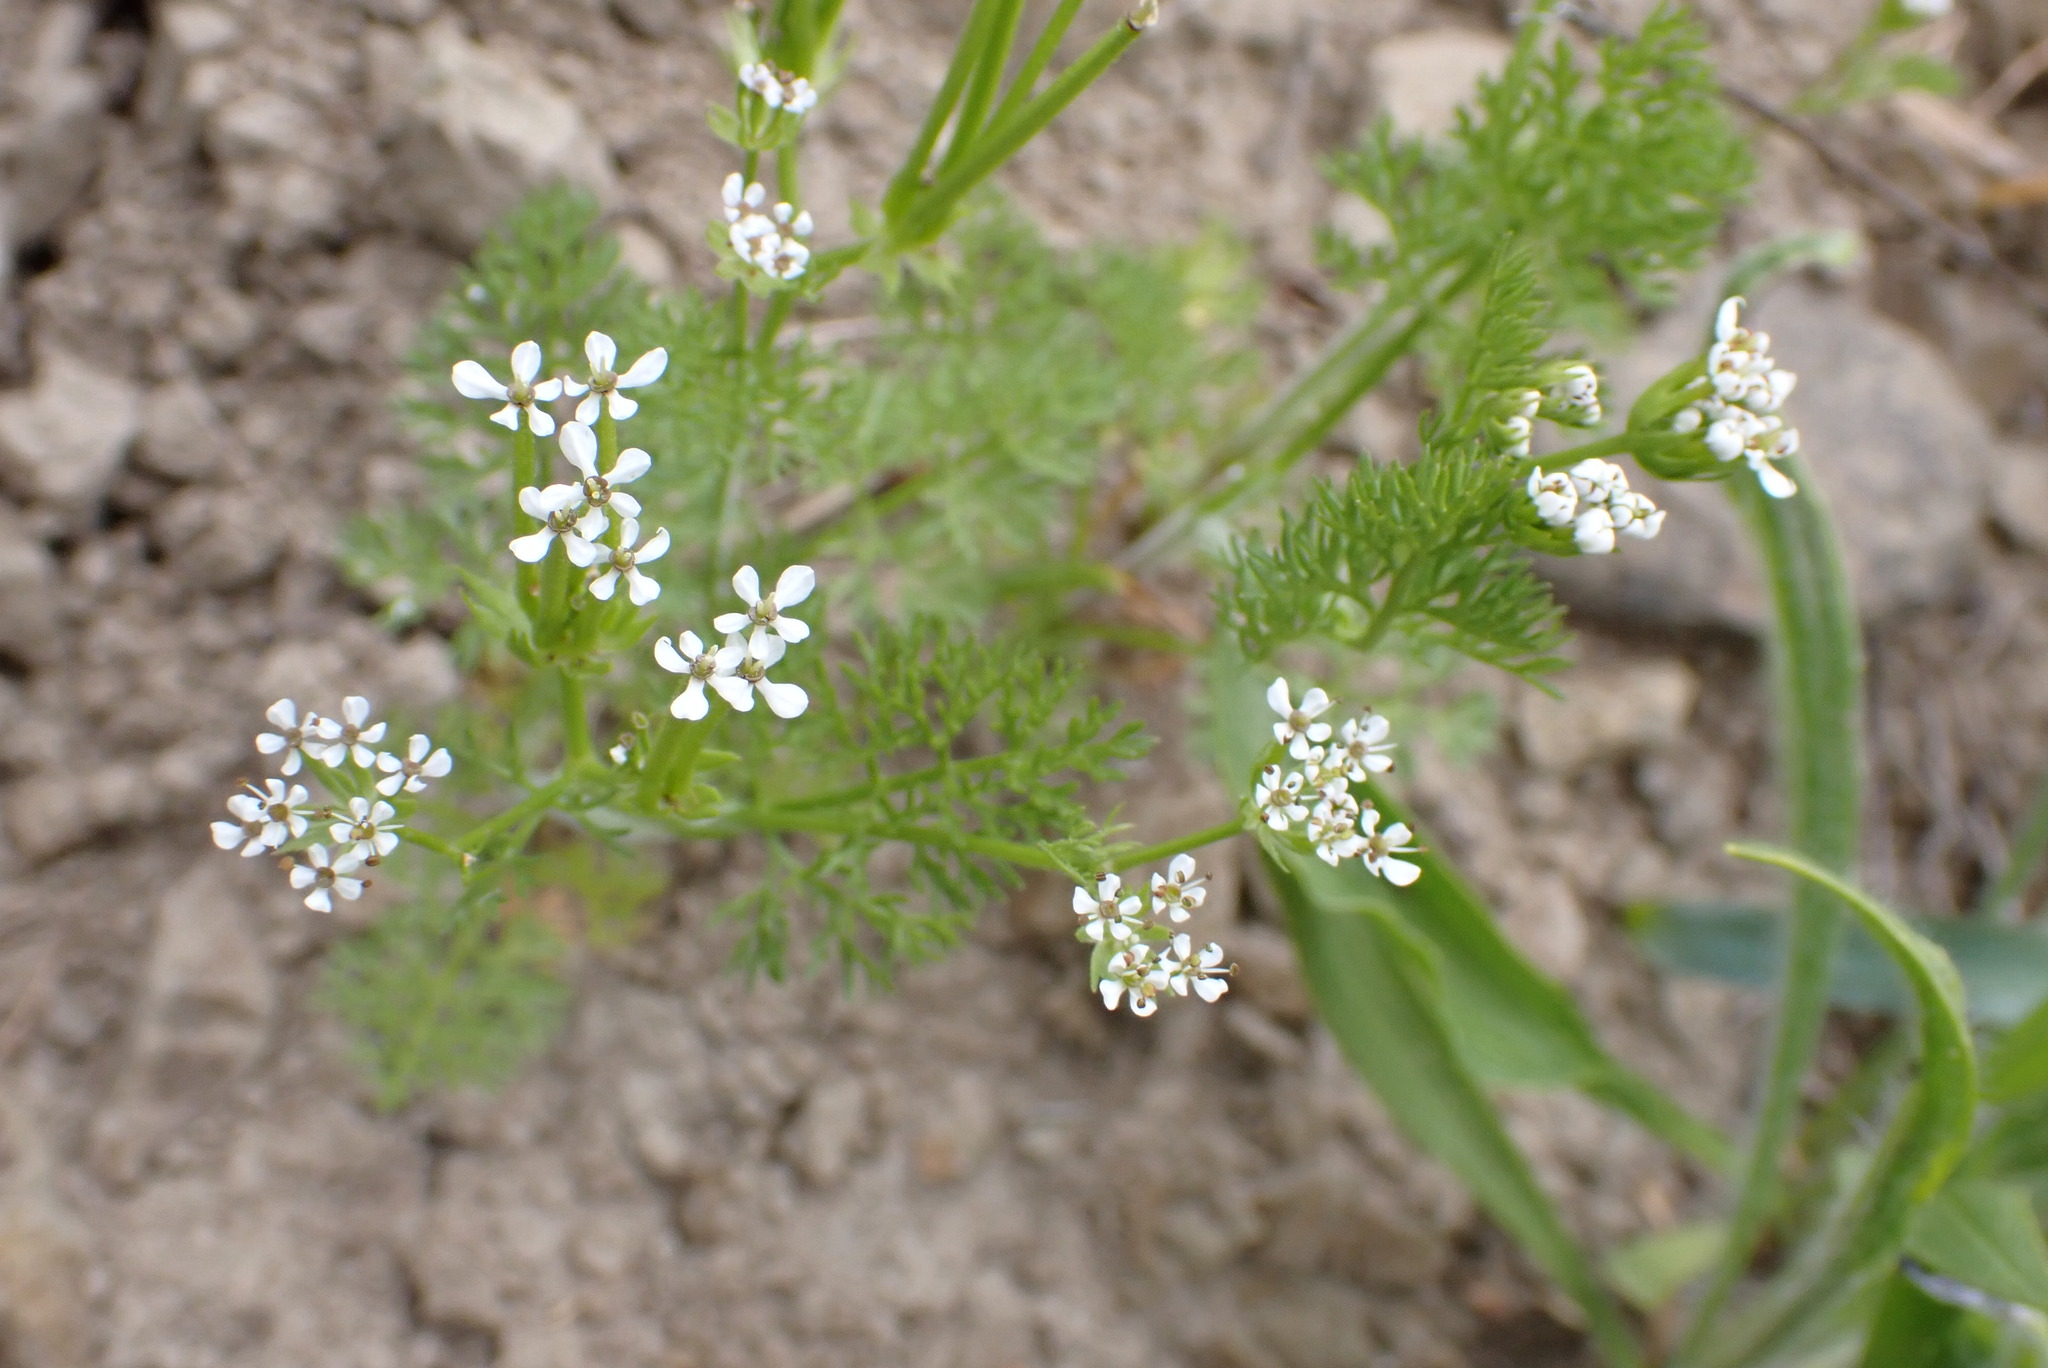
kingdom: Plantae
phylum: Tracheophyta
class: Magnoliopsida
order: Apiales
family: Apiaceae
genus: Scandix
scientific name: Scandix pecten-veneris
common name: Shepherd's-needle
